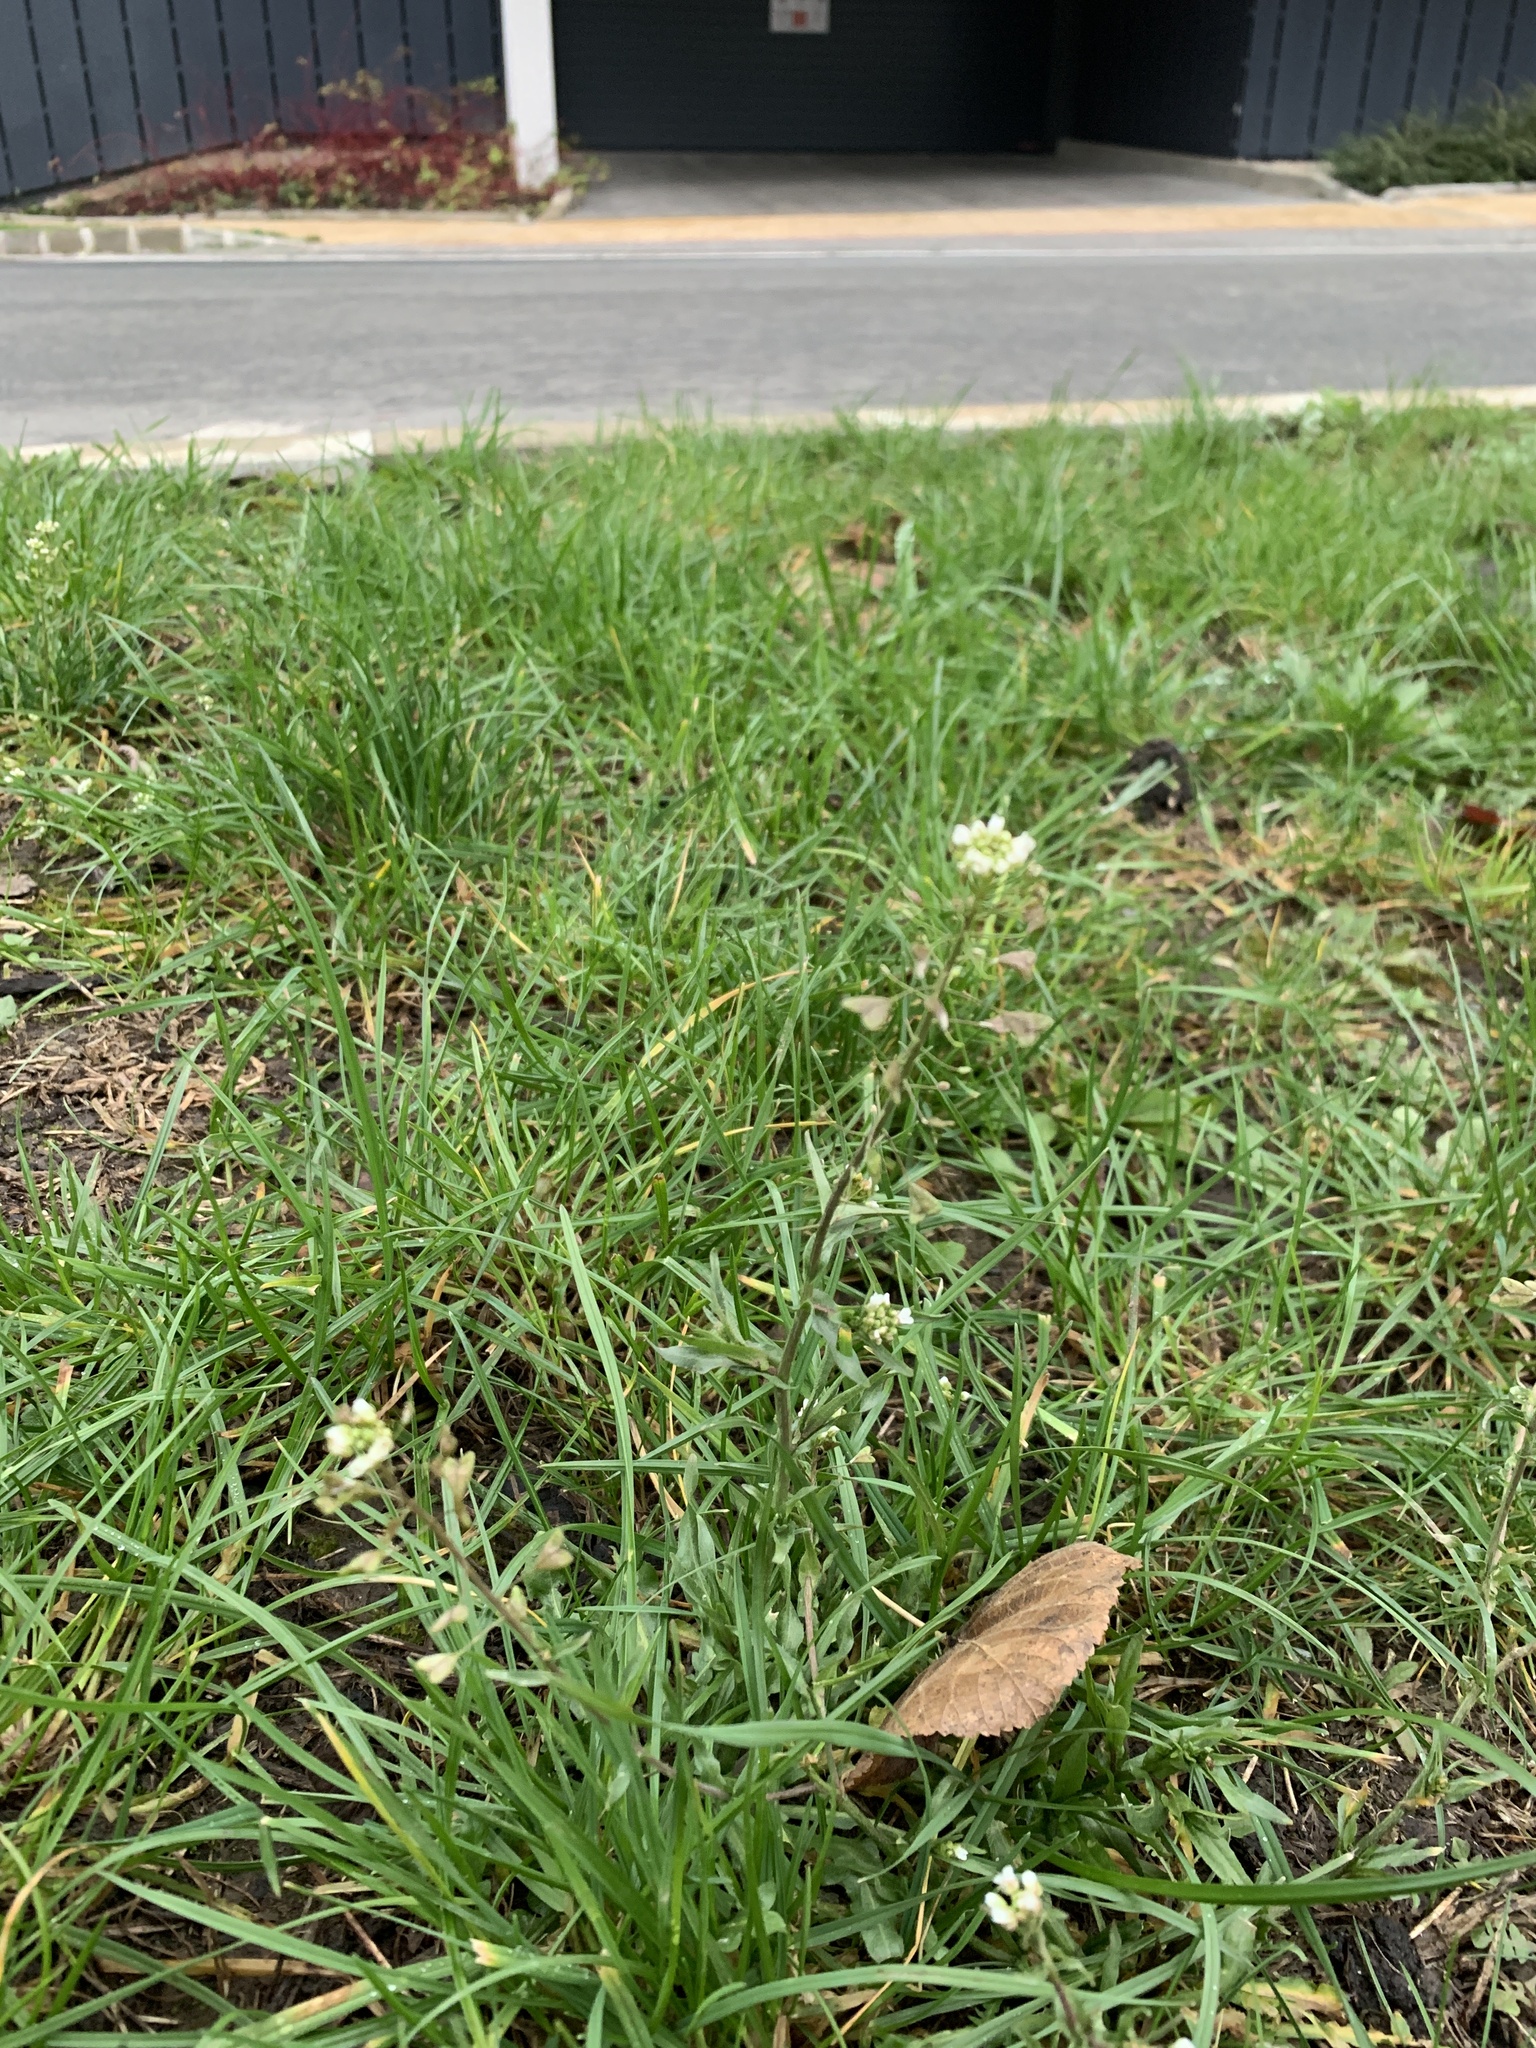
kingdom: Plantae
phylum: Tracheophyta
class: Magnoliopsida
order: Brassicales
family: Brassicaceae
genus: Capsella
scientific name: Capsella bursa-pastoris
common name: Shepherd's purse
